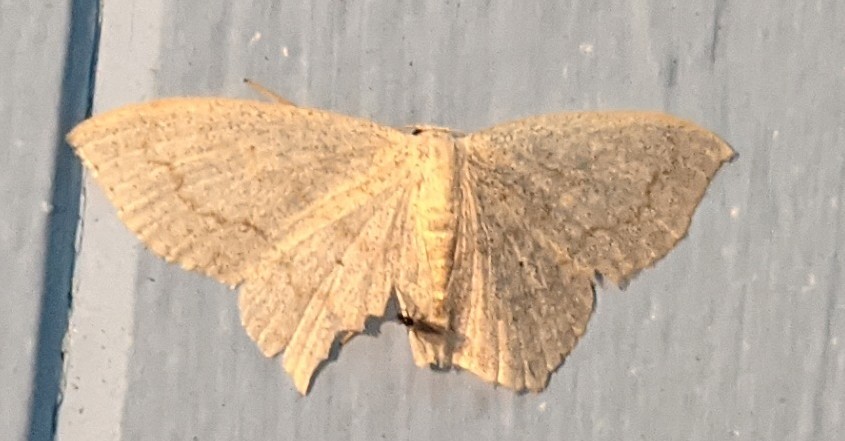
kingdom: Animalia
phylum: Arthropoda
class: Insecta
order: Lepidoptera
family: Geometridae
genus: Scopula
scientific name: Scopula limboundata
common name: Large lace border
